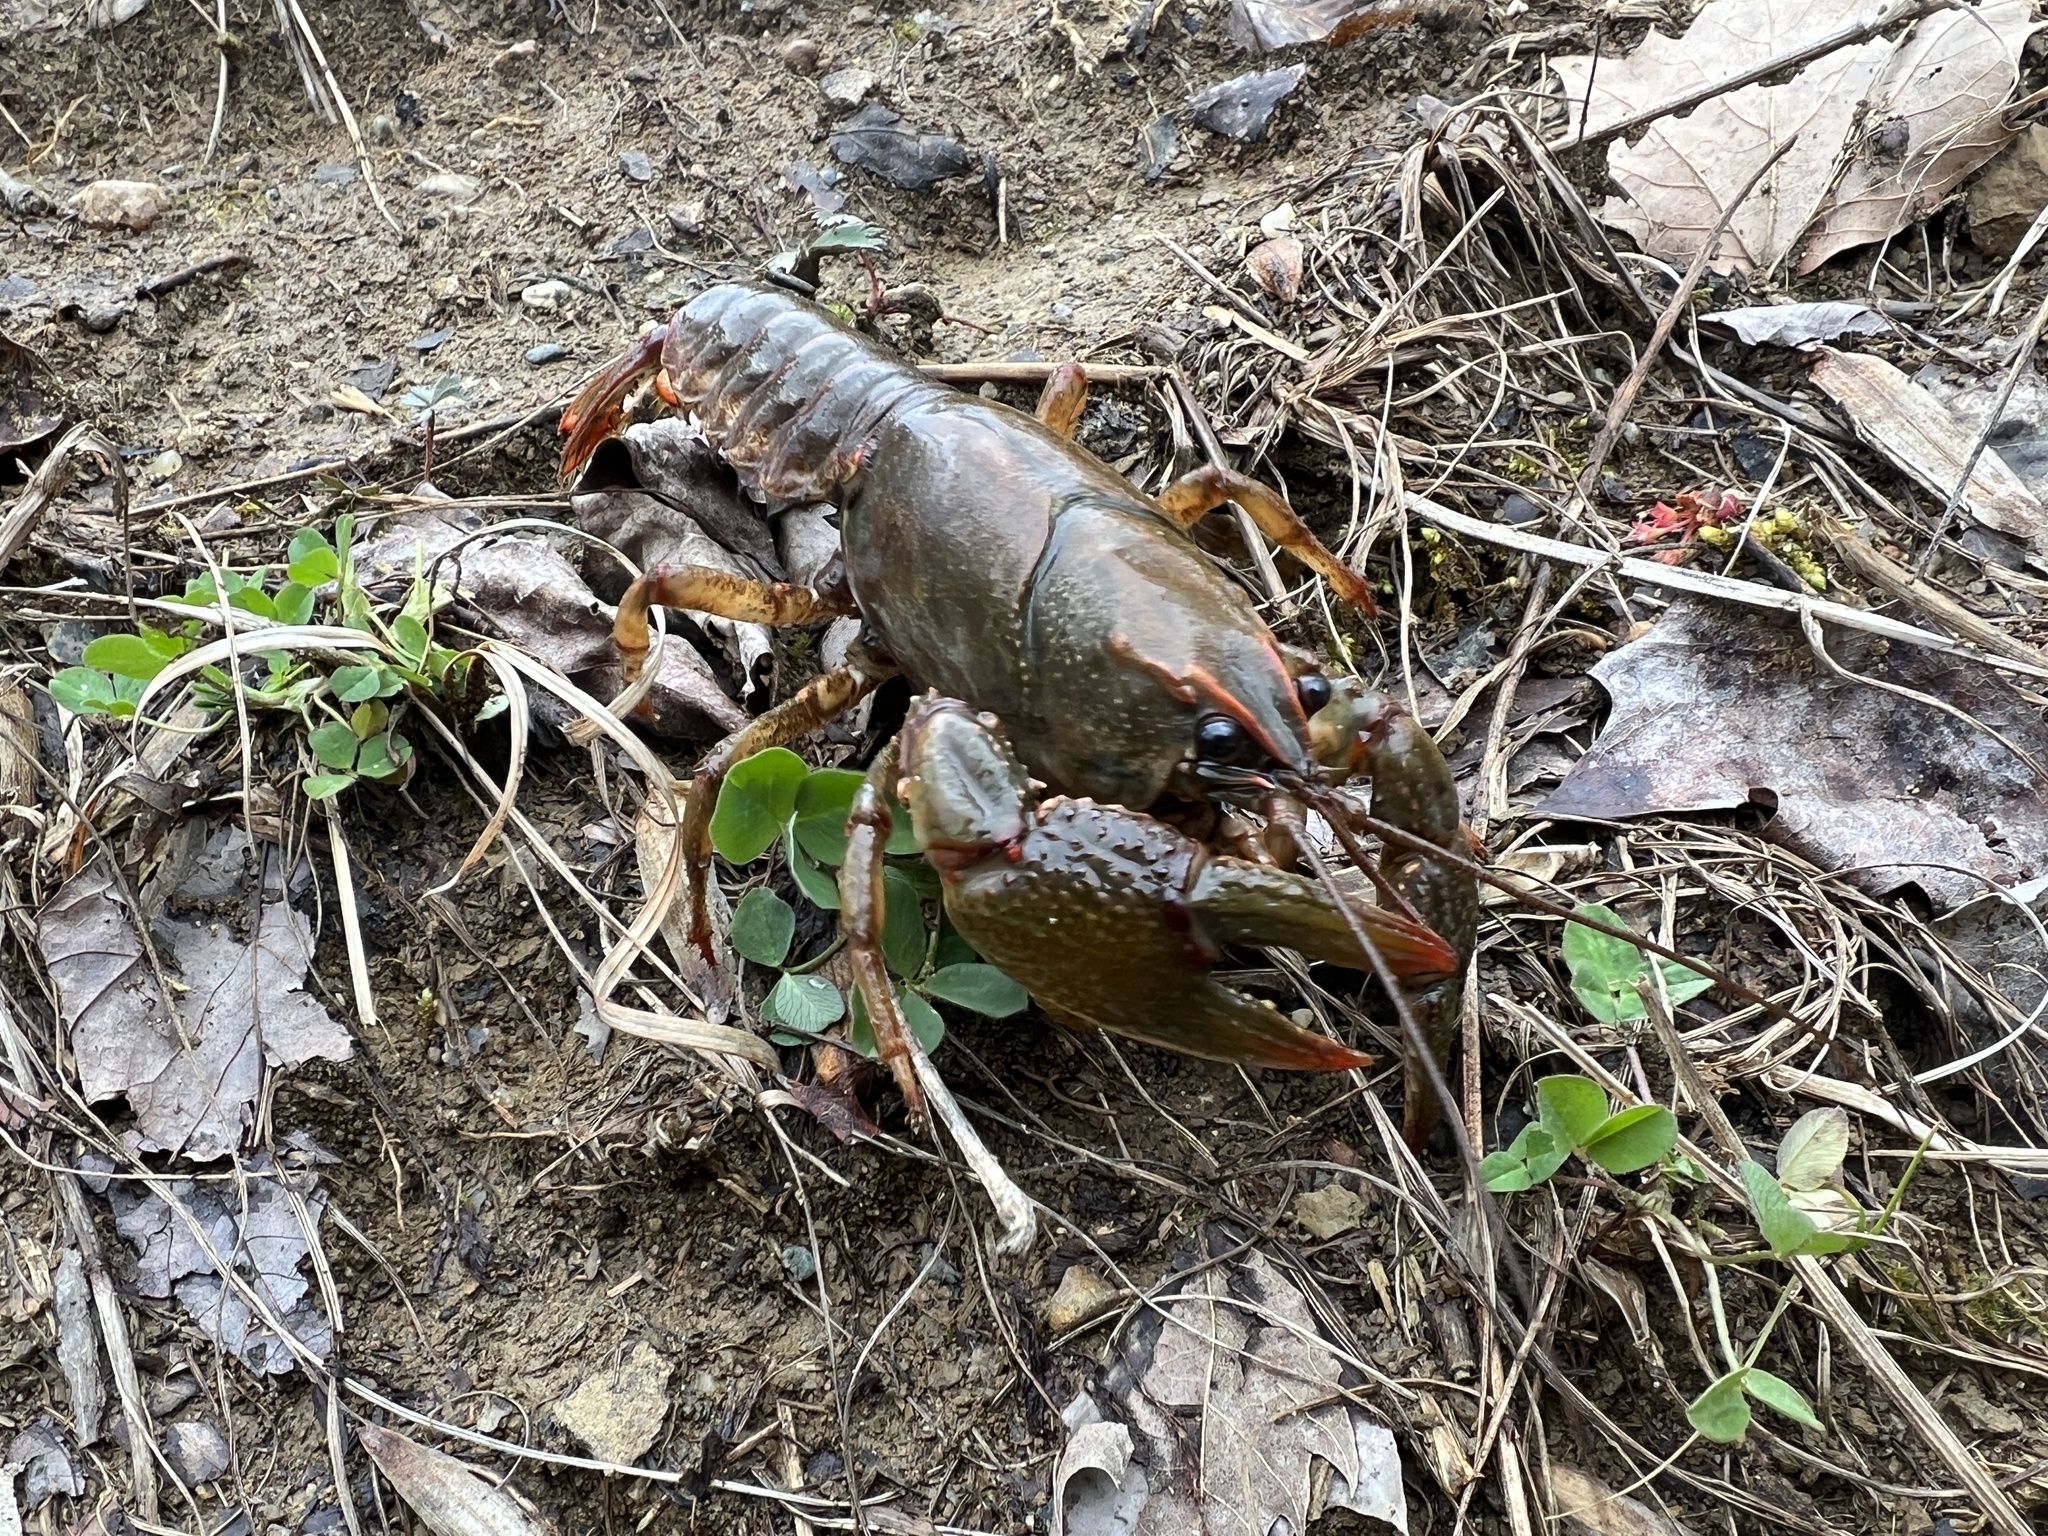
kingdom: Animalia
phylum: Arthropoda
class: Malacostraca
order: Decapoda
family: Cambaridae
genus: Lacunicambarus
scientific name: Lacunicambarus polychromatus
